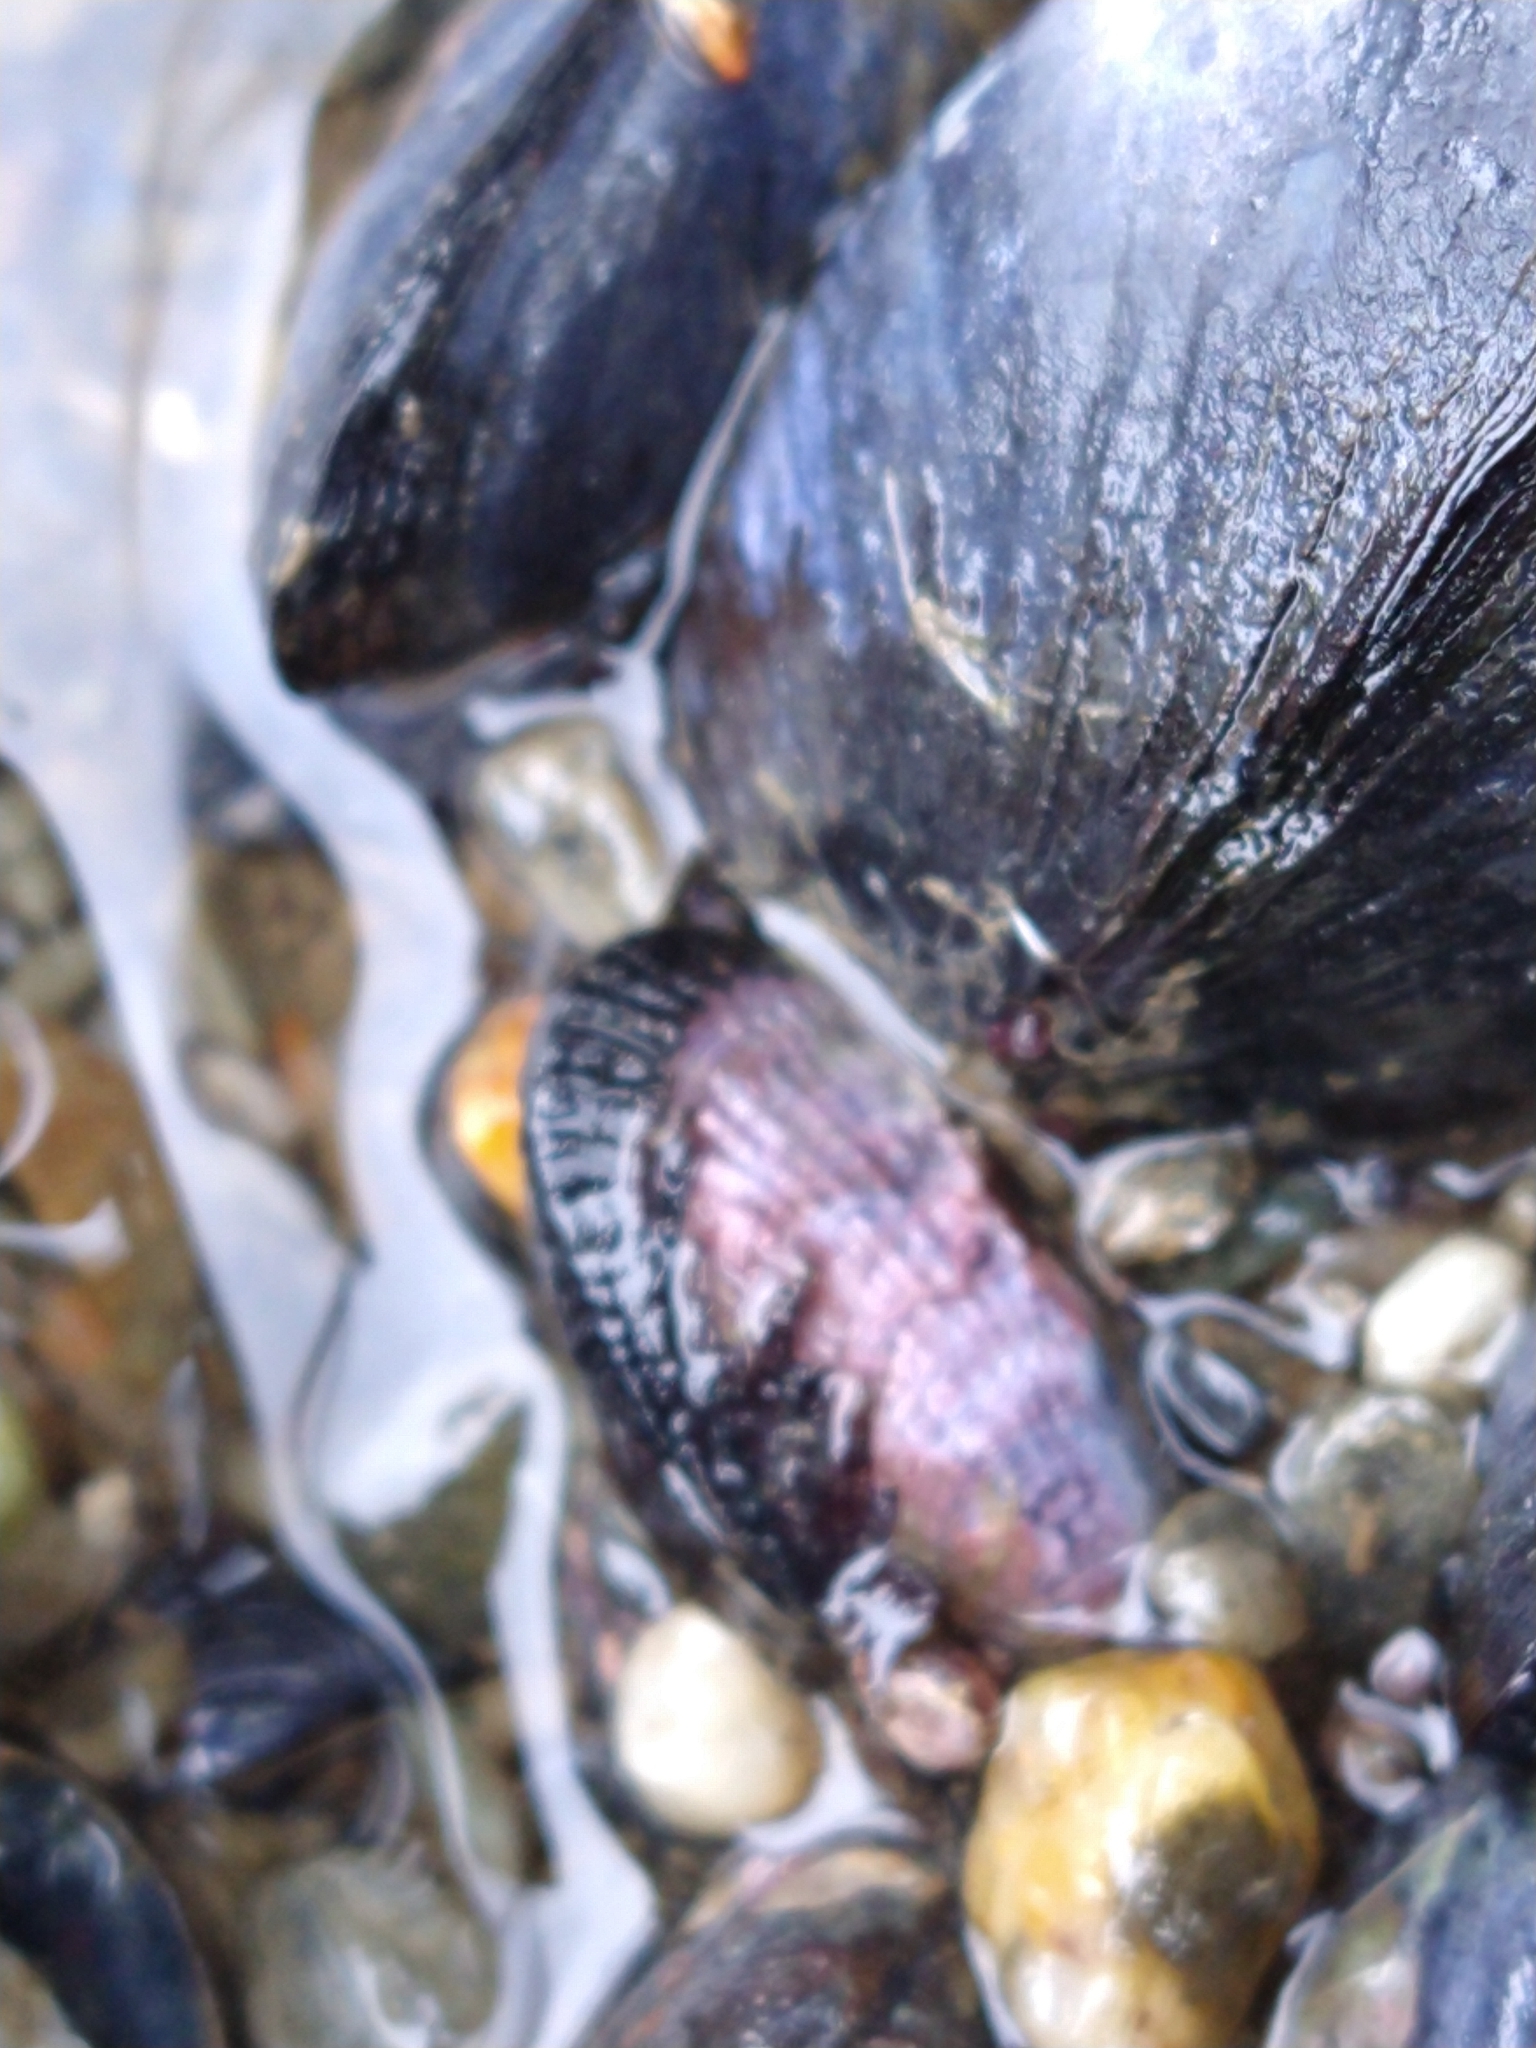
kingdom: Animalia
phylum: Mollusca
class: Bivalvia
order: Mytilida
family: Mytilidae
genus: Perumytilus
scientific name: Perumytilus purpuratus
